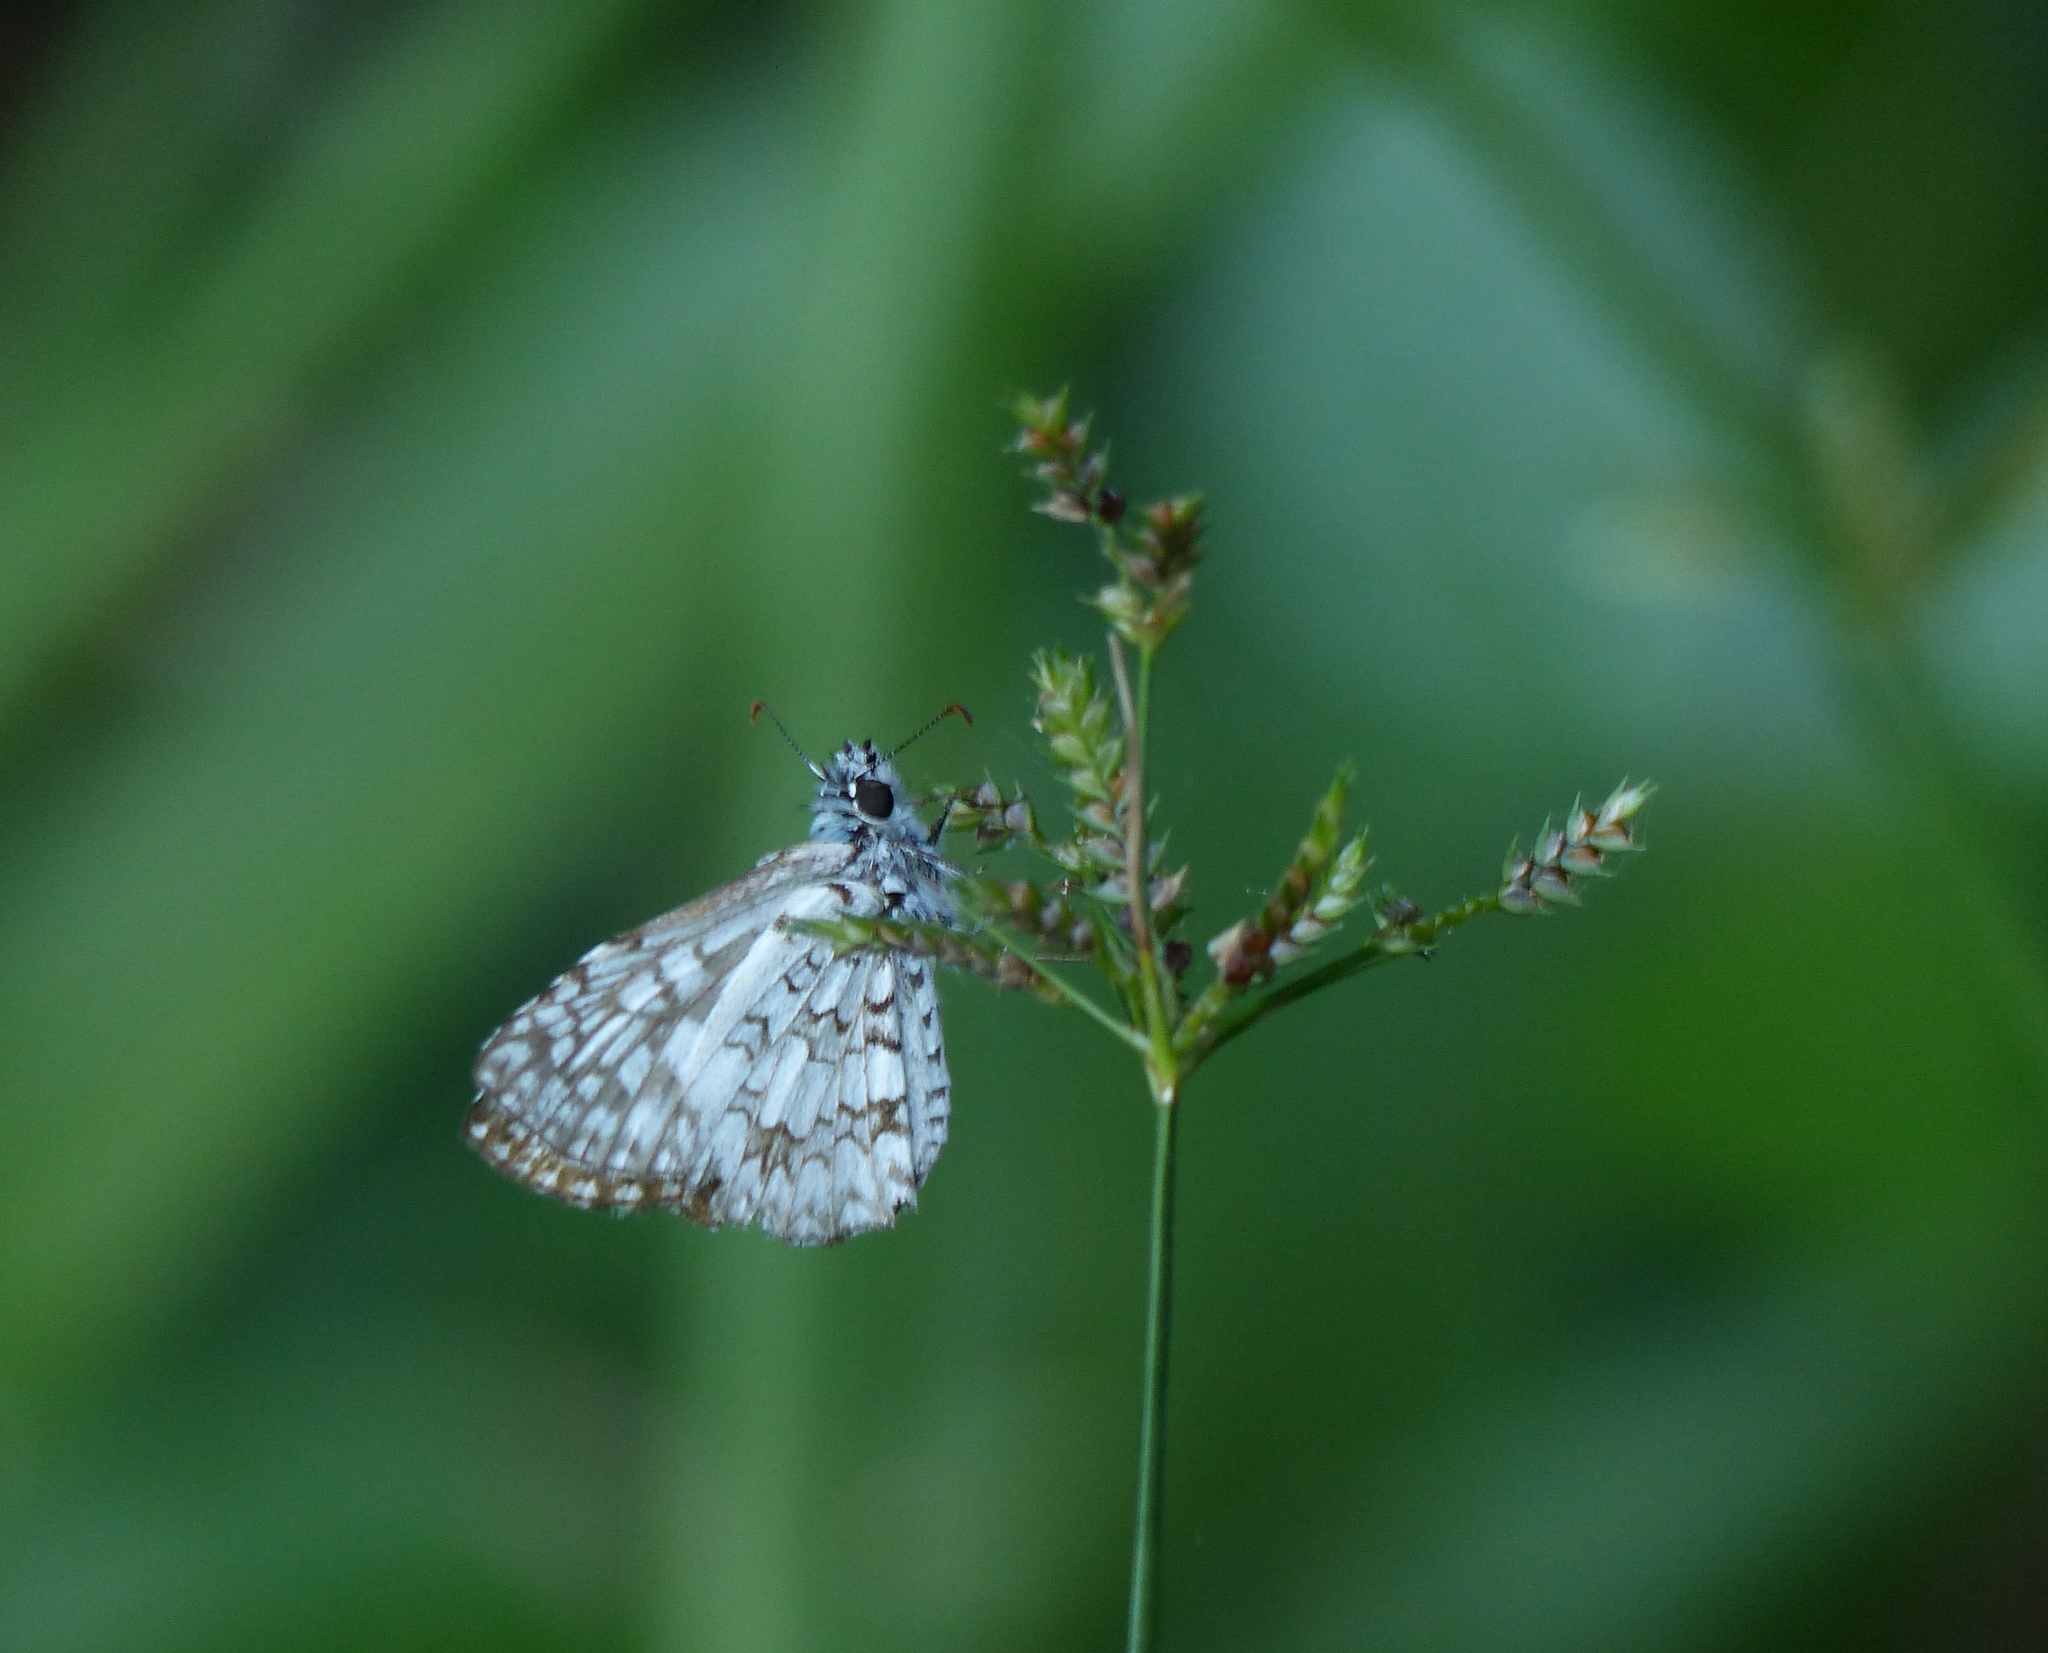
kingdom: Animalia
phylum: Arthropoda
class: Insecta
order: Lepidoptera
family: Hesperiidae
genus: Pyrgus
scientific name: Pyrgus oileus
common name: Tropical checkered-skipper
